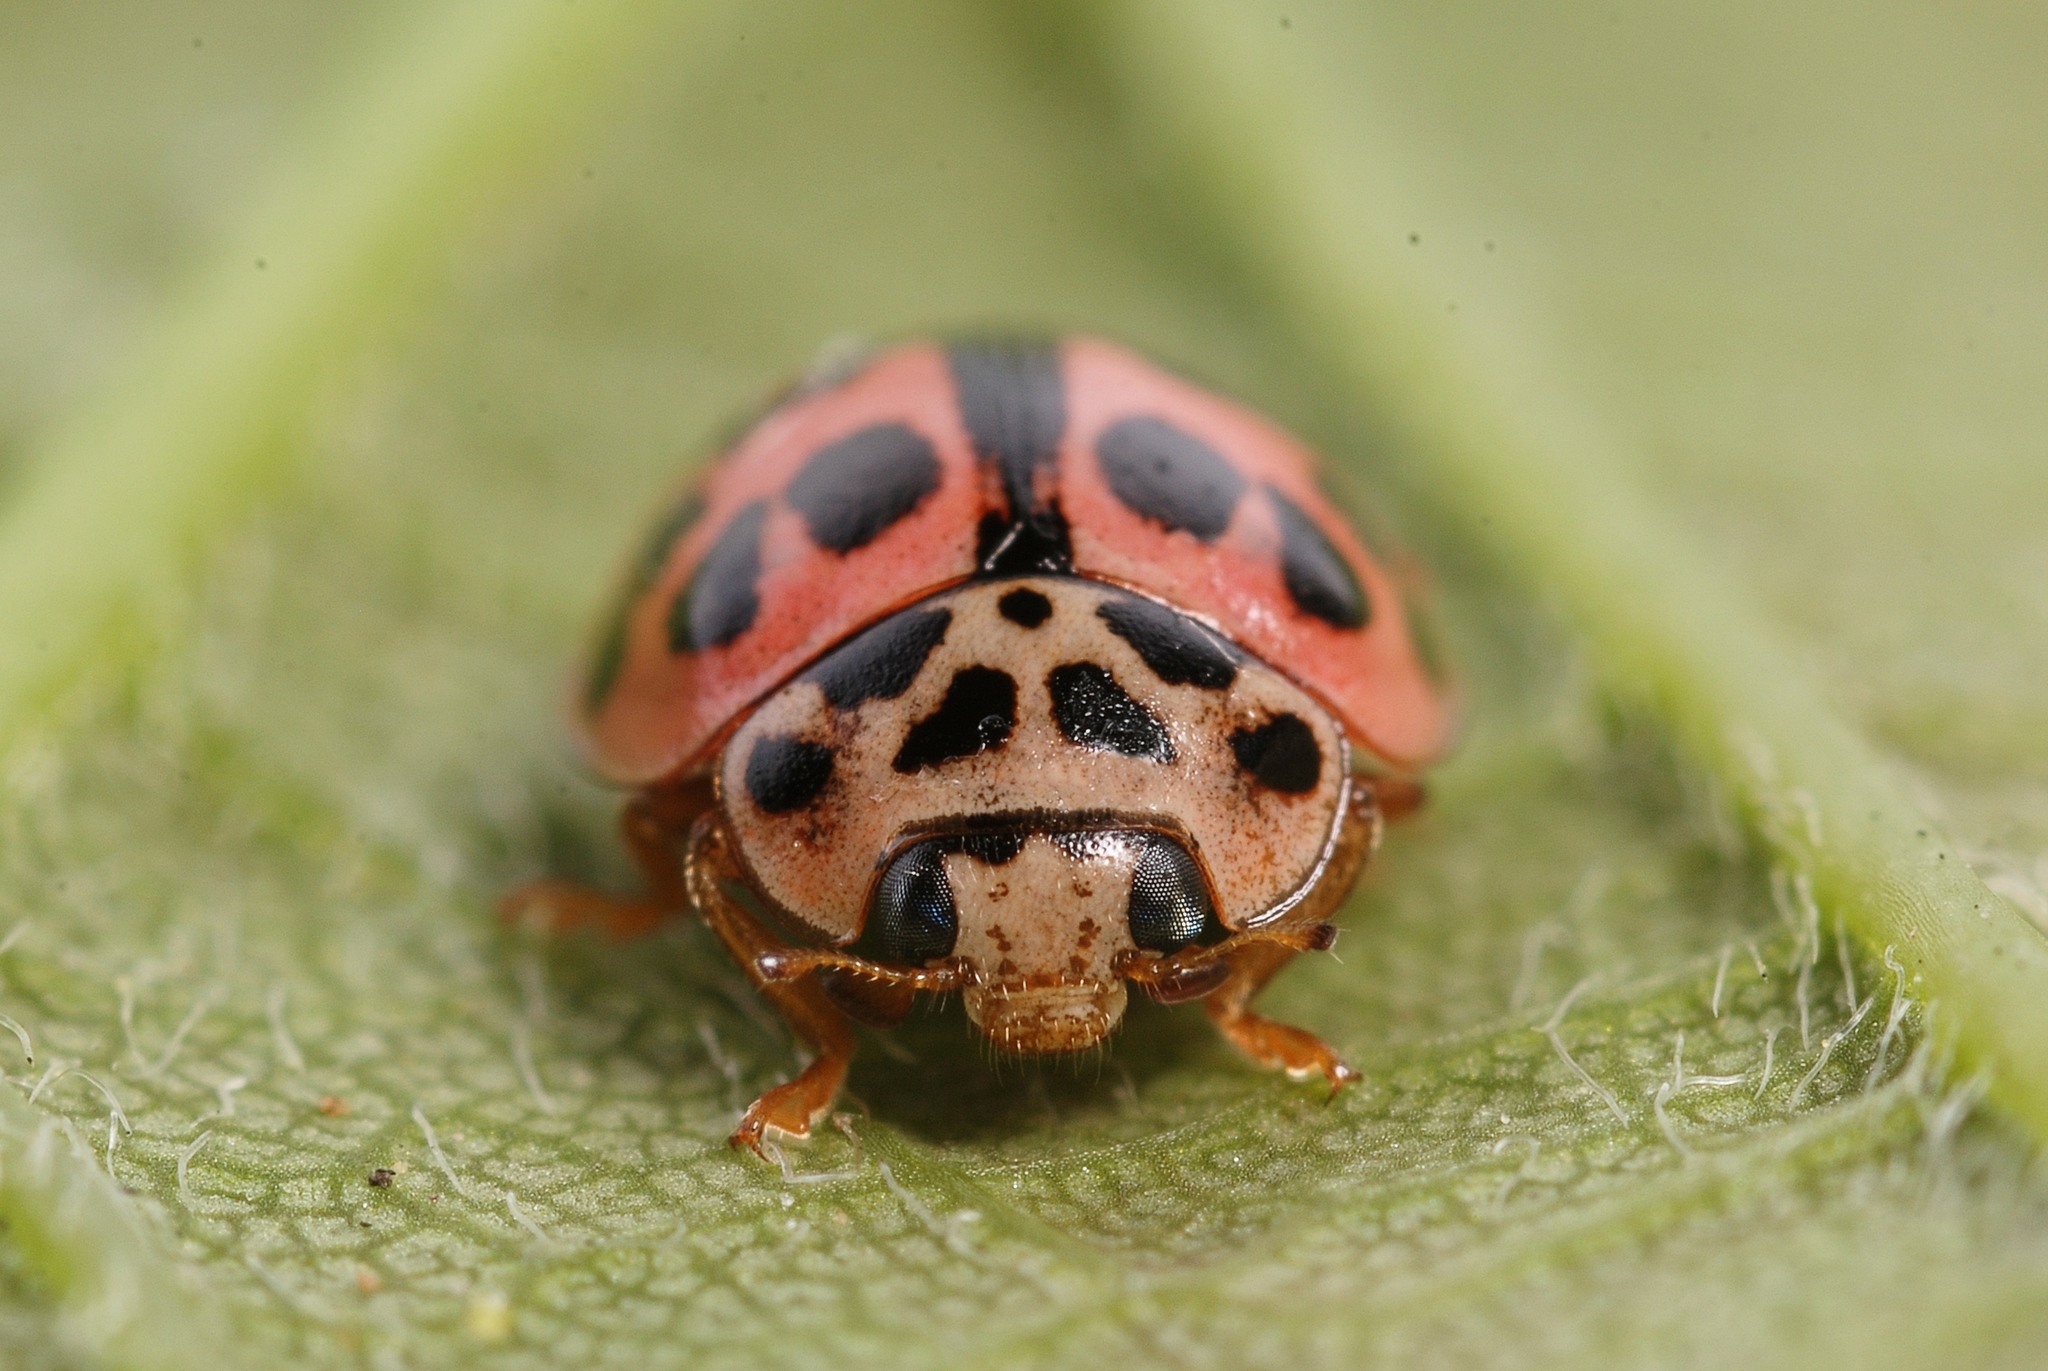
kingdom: Animalia
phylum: Arthropoda
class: Insecta
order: Coleoptera
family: Coccinellidae
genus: Oenopia
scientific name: Oenopia conglobata
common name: Ladybird beetle
